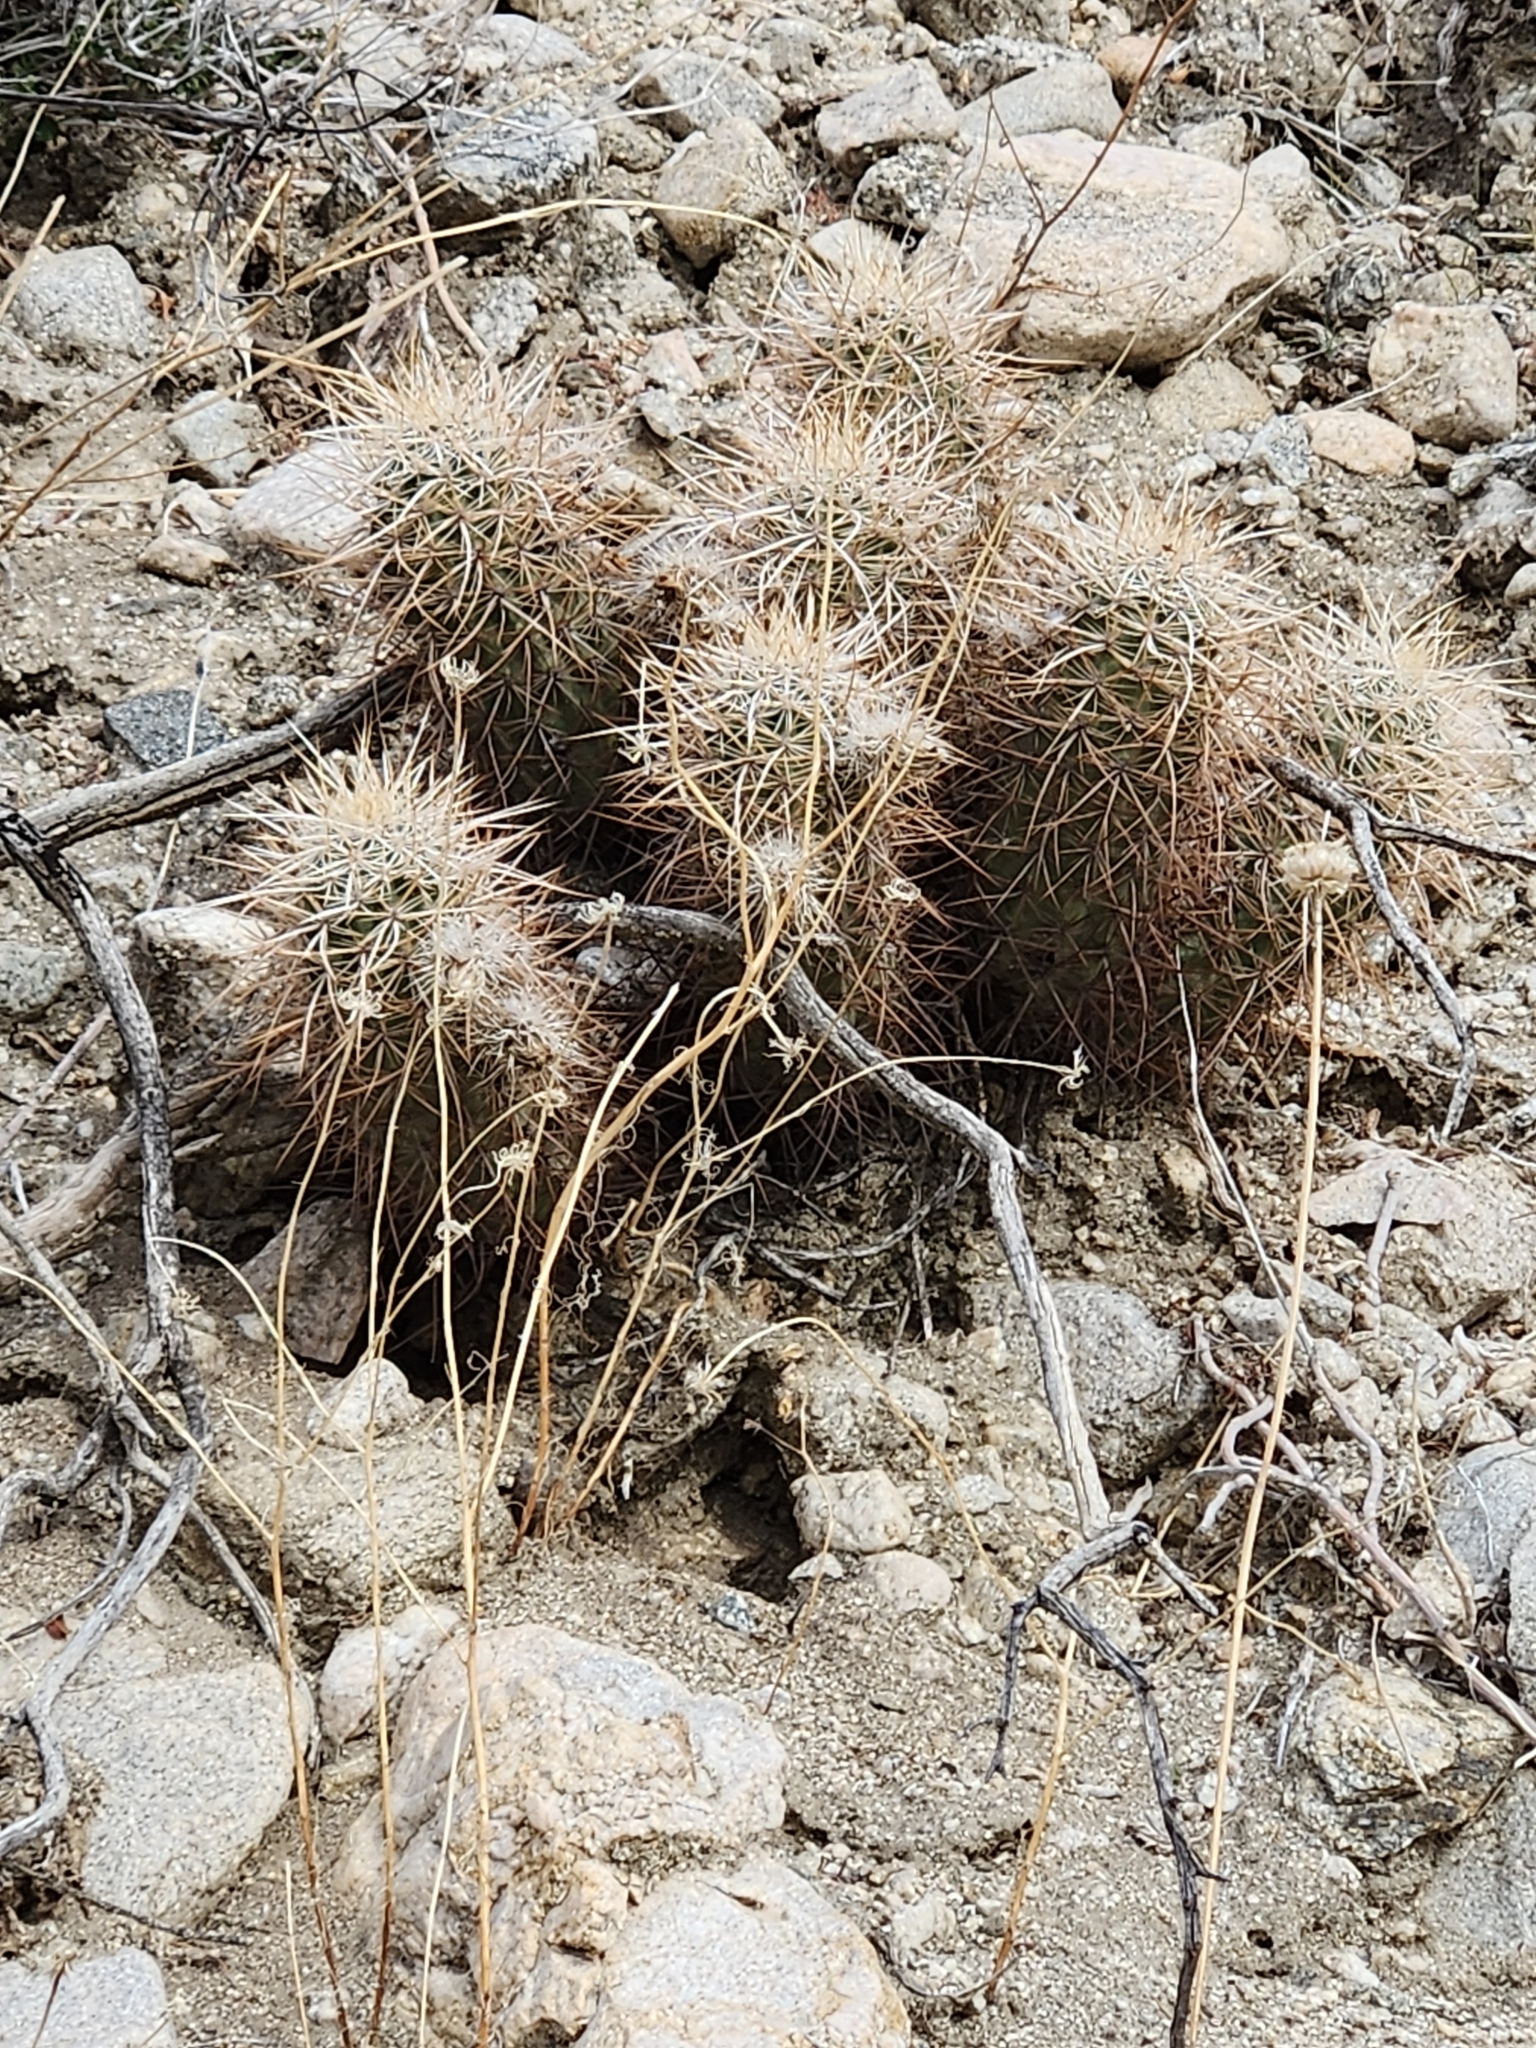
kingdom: Plantae
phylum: Tracheophyta
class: Magnoliopsida
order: Caryophyllales
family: Cactaceae
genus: Echinocereus
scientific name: Echinocereus engelmannii
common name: Engelmann's hedgehog cactus
